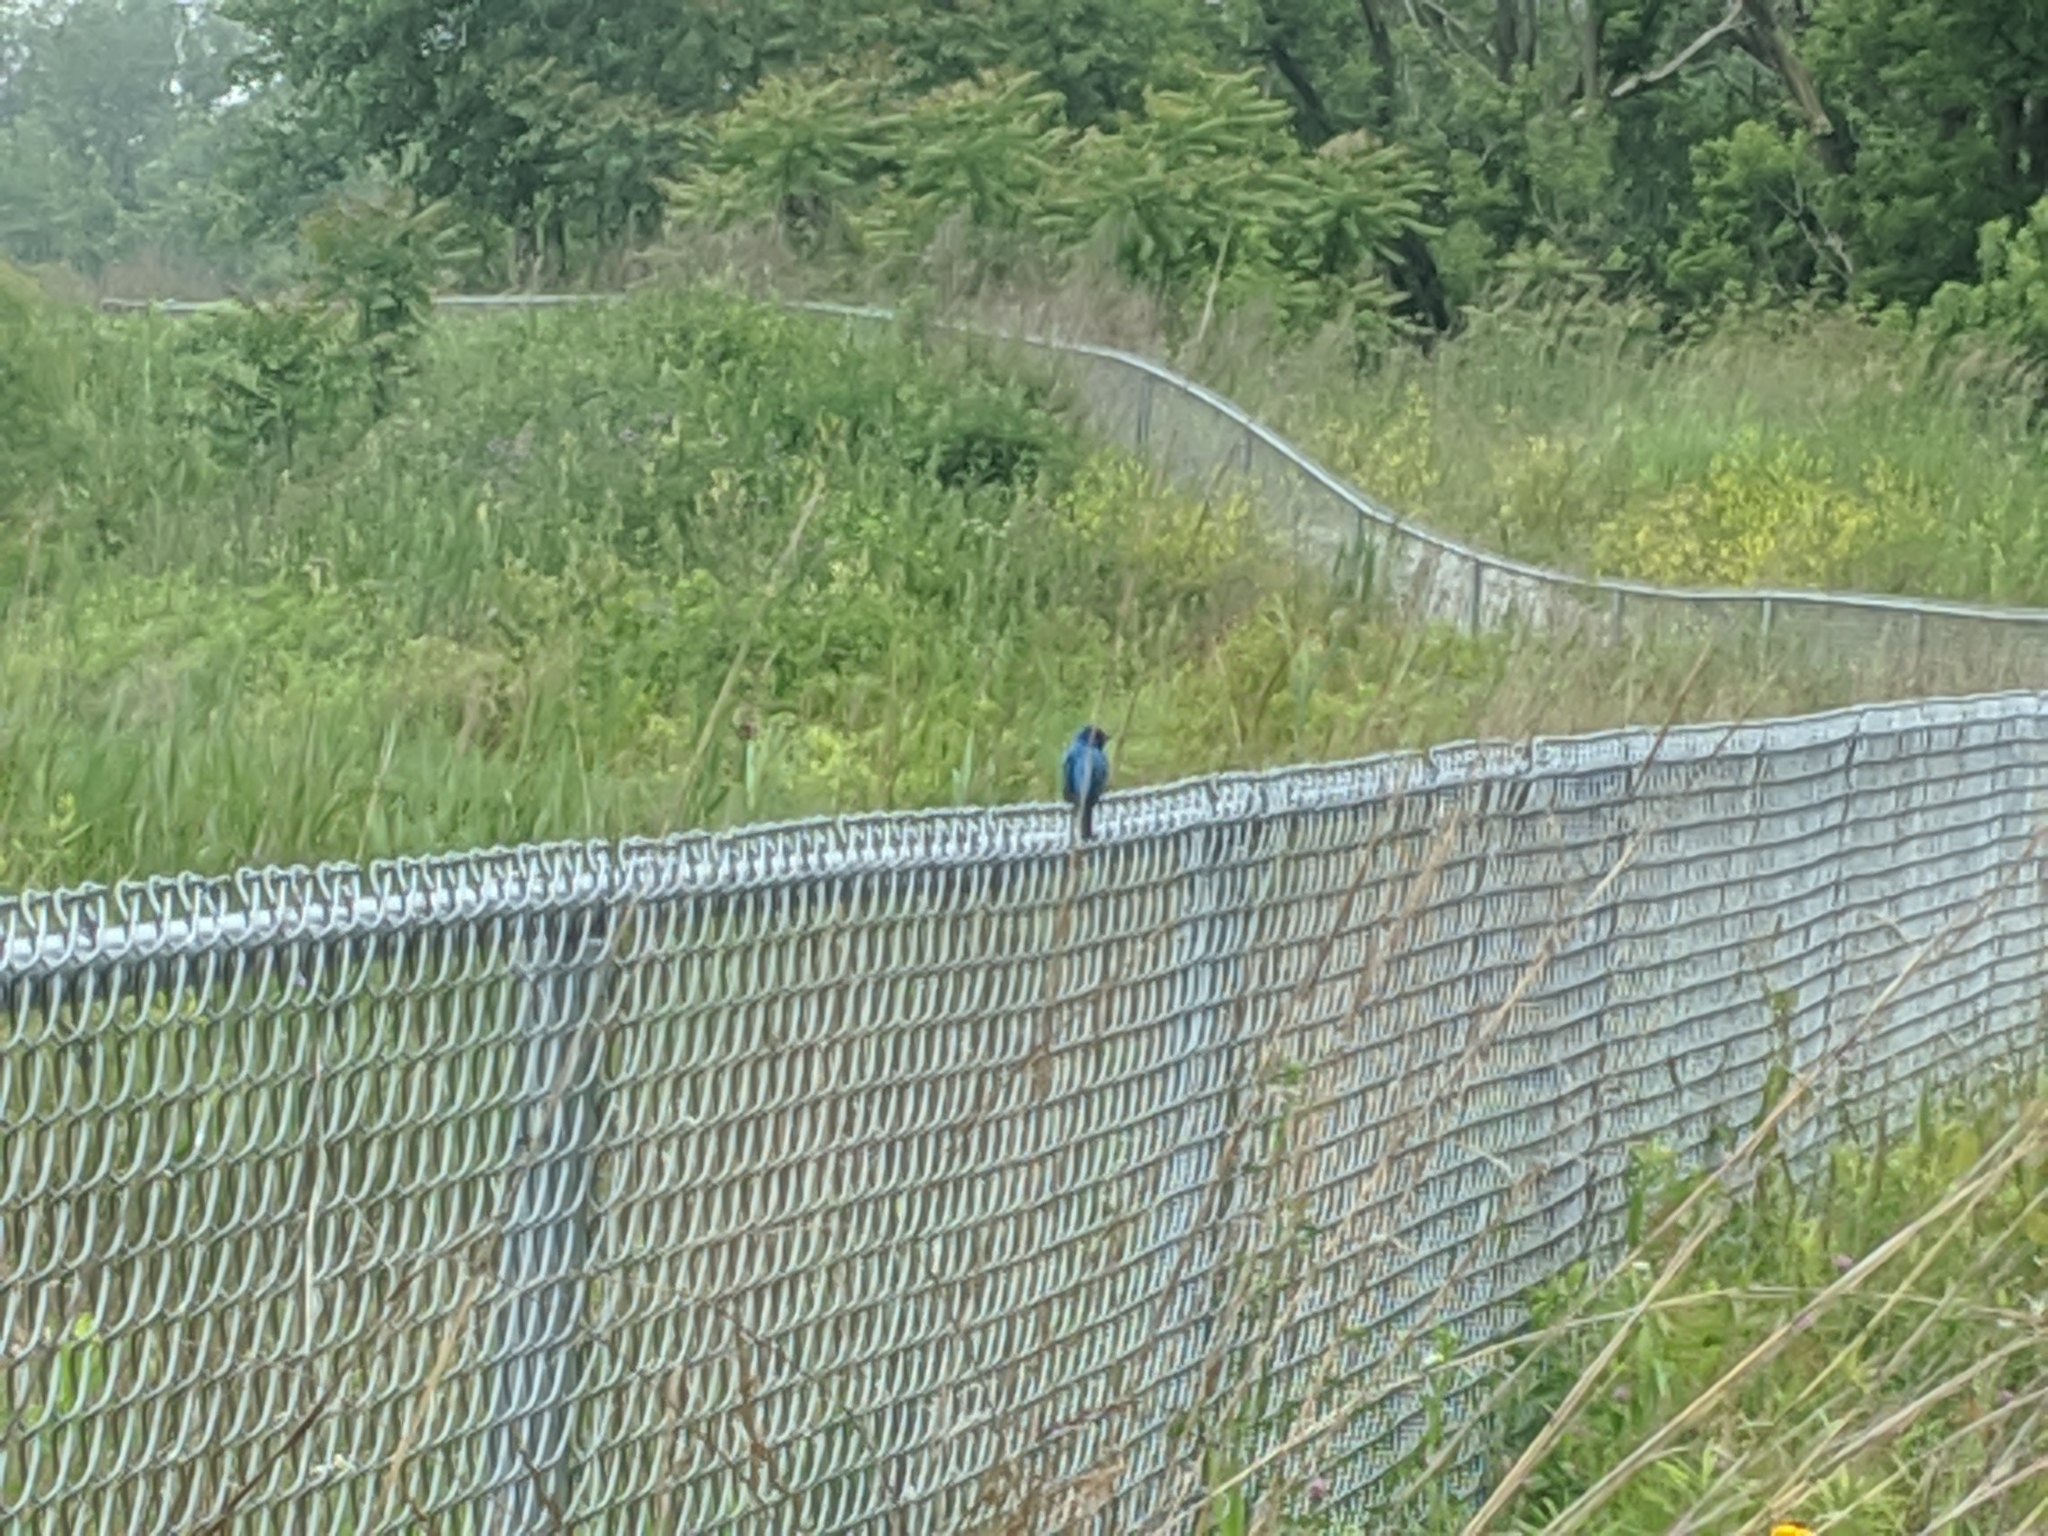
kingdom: Animalia
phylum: Chordata
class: Aves
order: Passeriformes
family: Cardinalidae
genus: Passerina
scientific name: Passerina cyanea
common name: Indigo bunting
